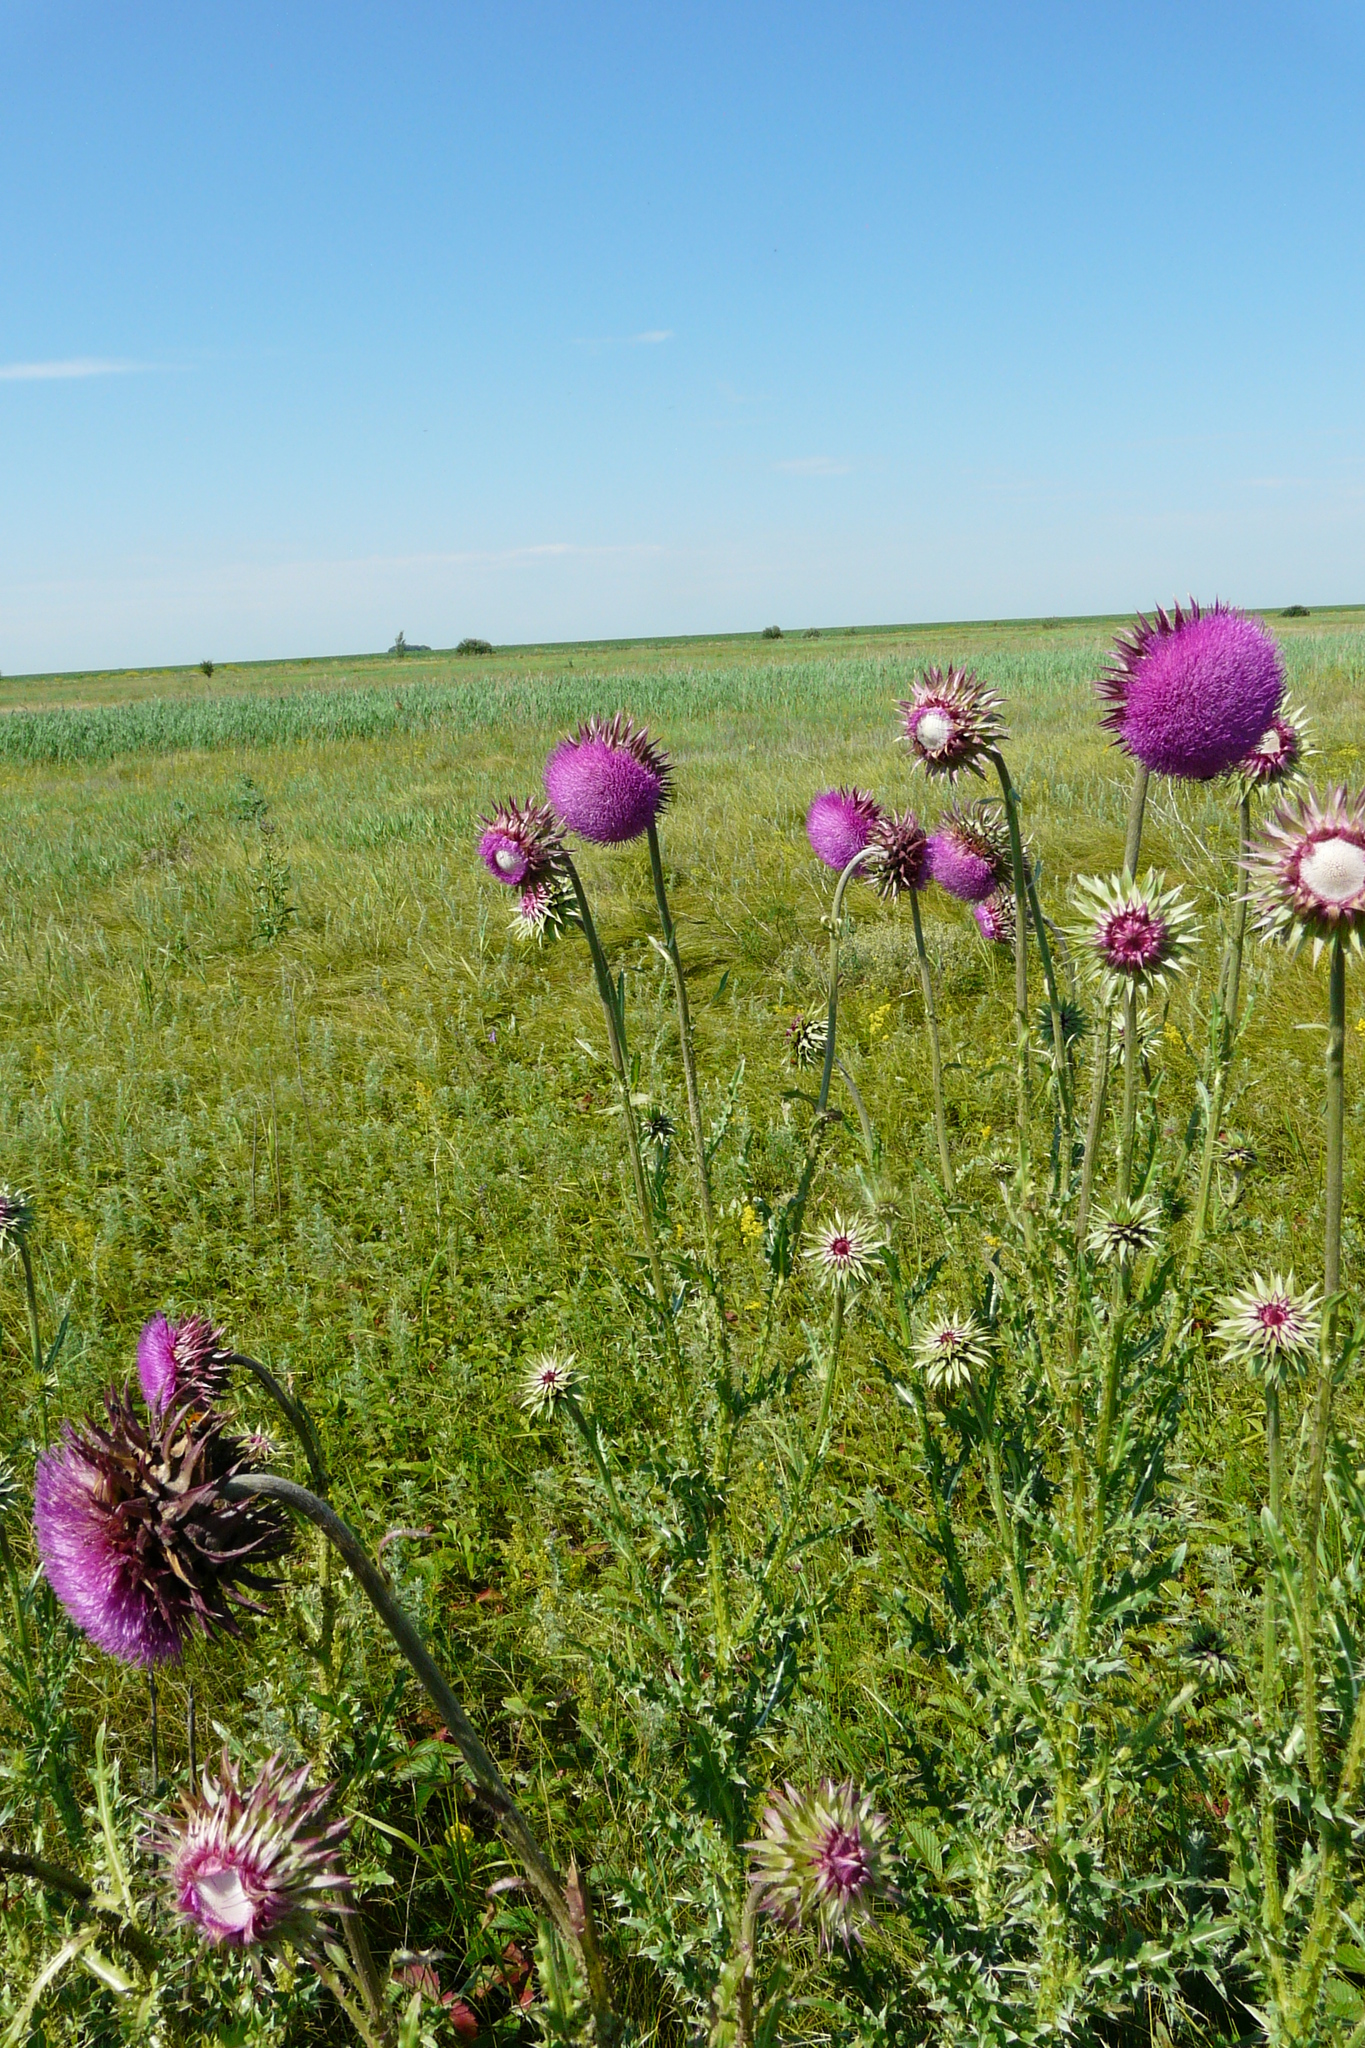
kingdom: Plantae
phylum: Tracheophyta
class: Magnoliopsida
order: Asterales
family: Asteraceae
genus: Carduus
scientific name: Carduus nutans
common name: Musk thistle
